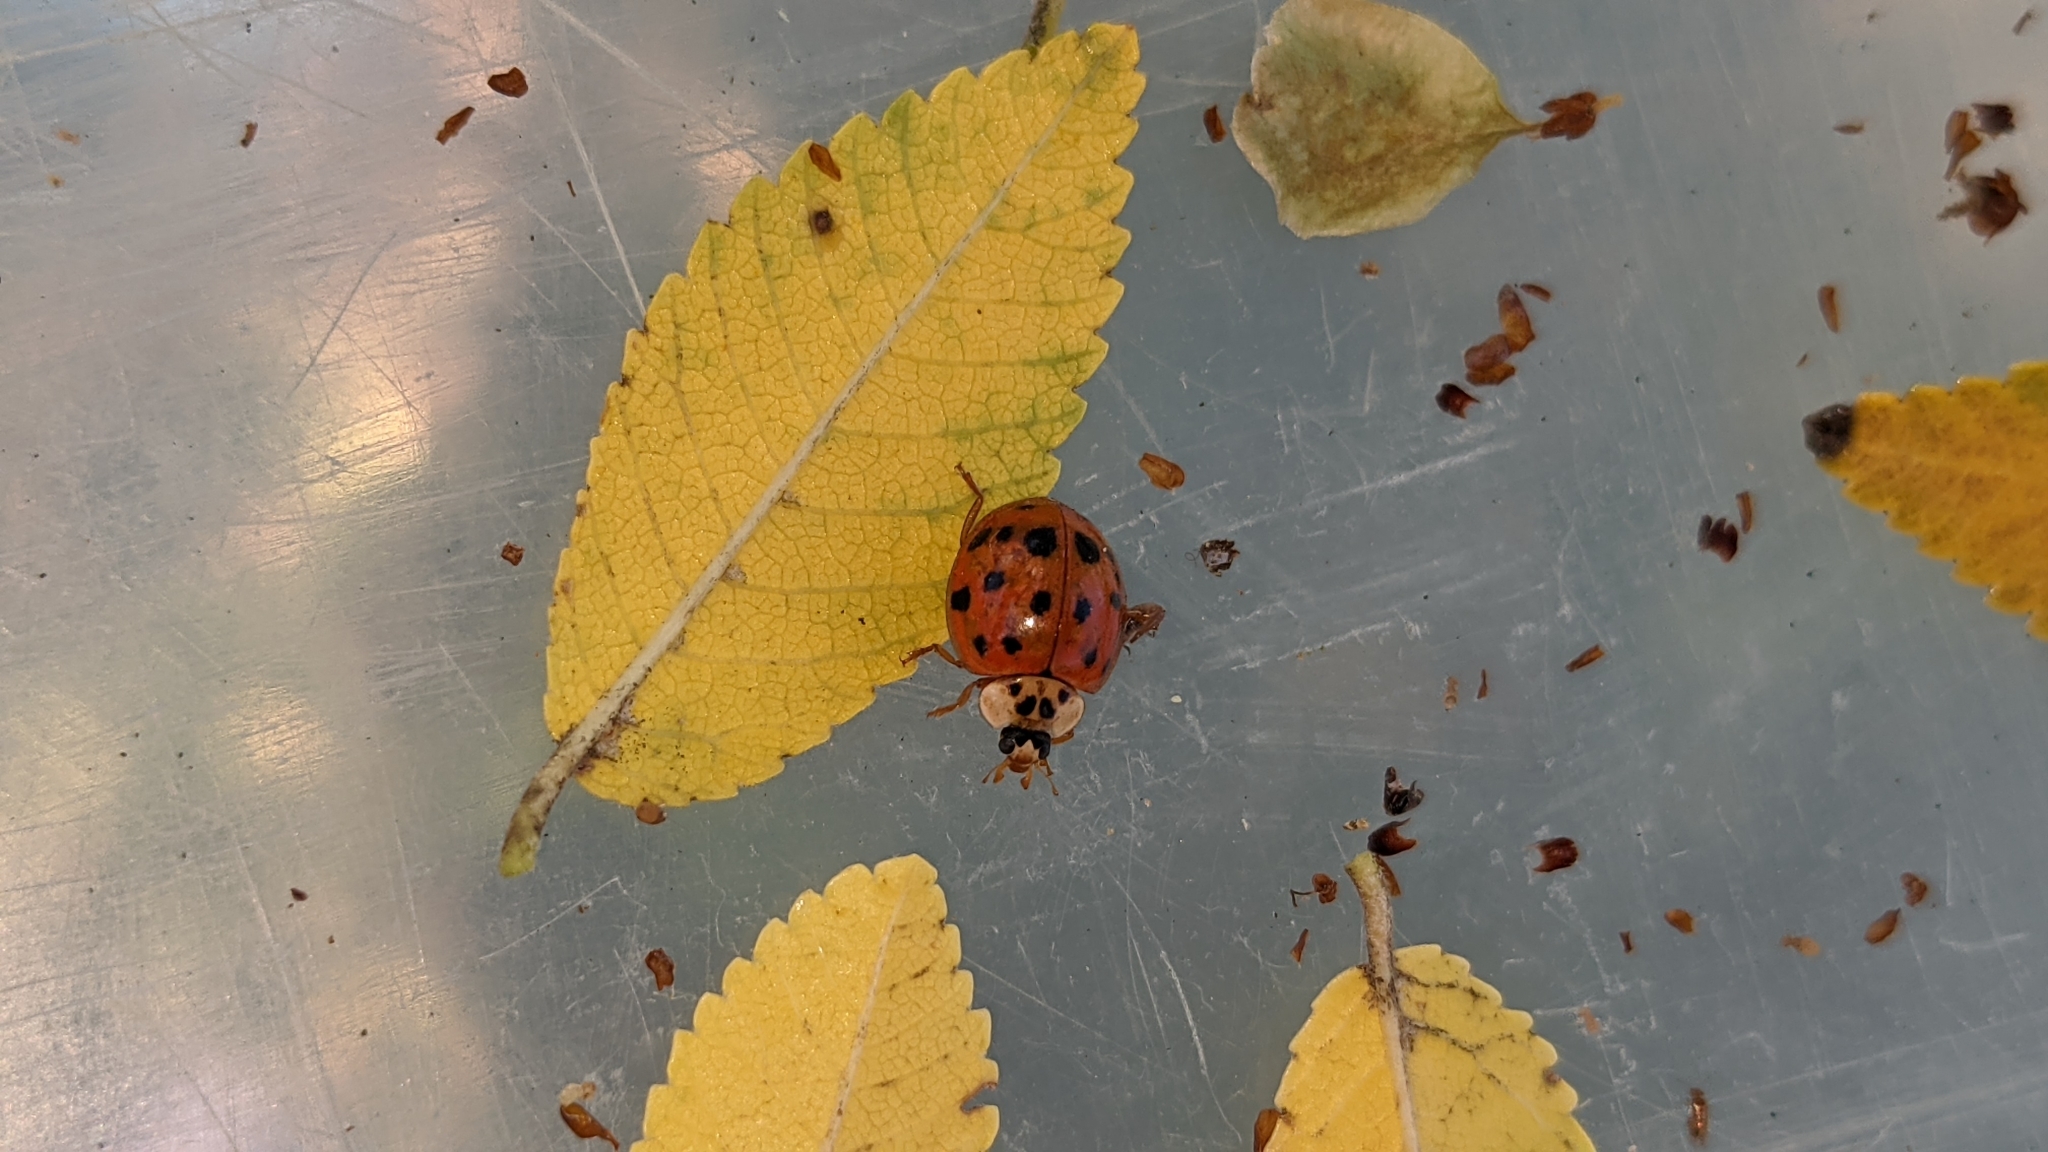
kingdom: Animalia
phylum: Arthropoda
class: Insecta
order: Coleoptera
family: Coccinellidae
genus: Harmonia
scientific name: Harmonia axyridis
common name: Harlequin ladybird
